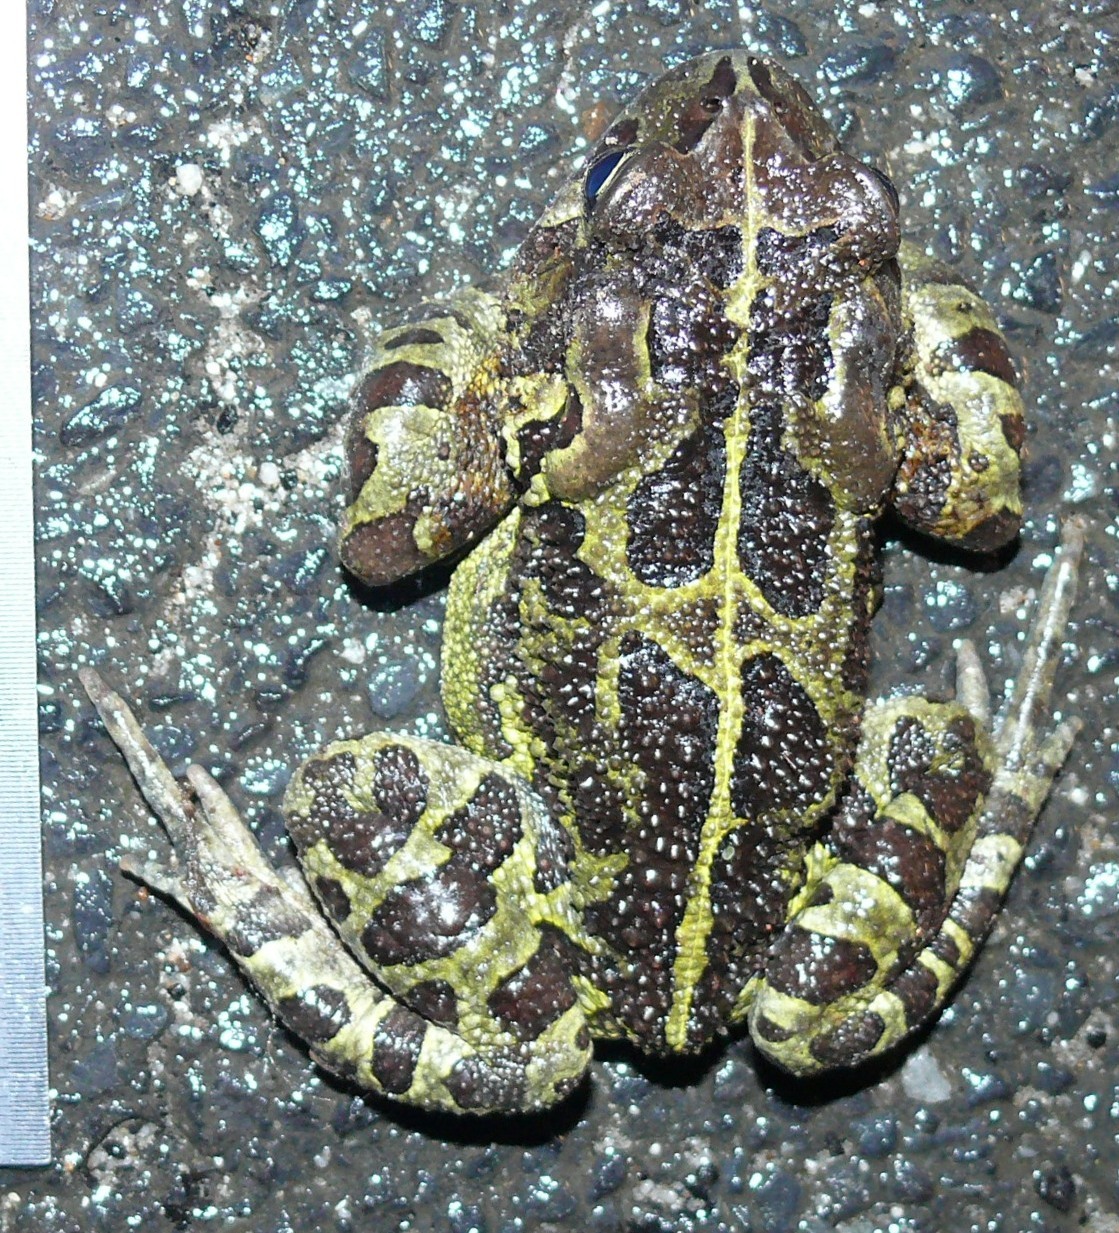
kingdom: Animalia
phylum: Chordata
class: Amphibia
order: Anura
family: Bufonidae
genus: Sclerophrys
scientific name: Sclerophrys pantherina
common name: Panther toad
